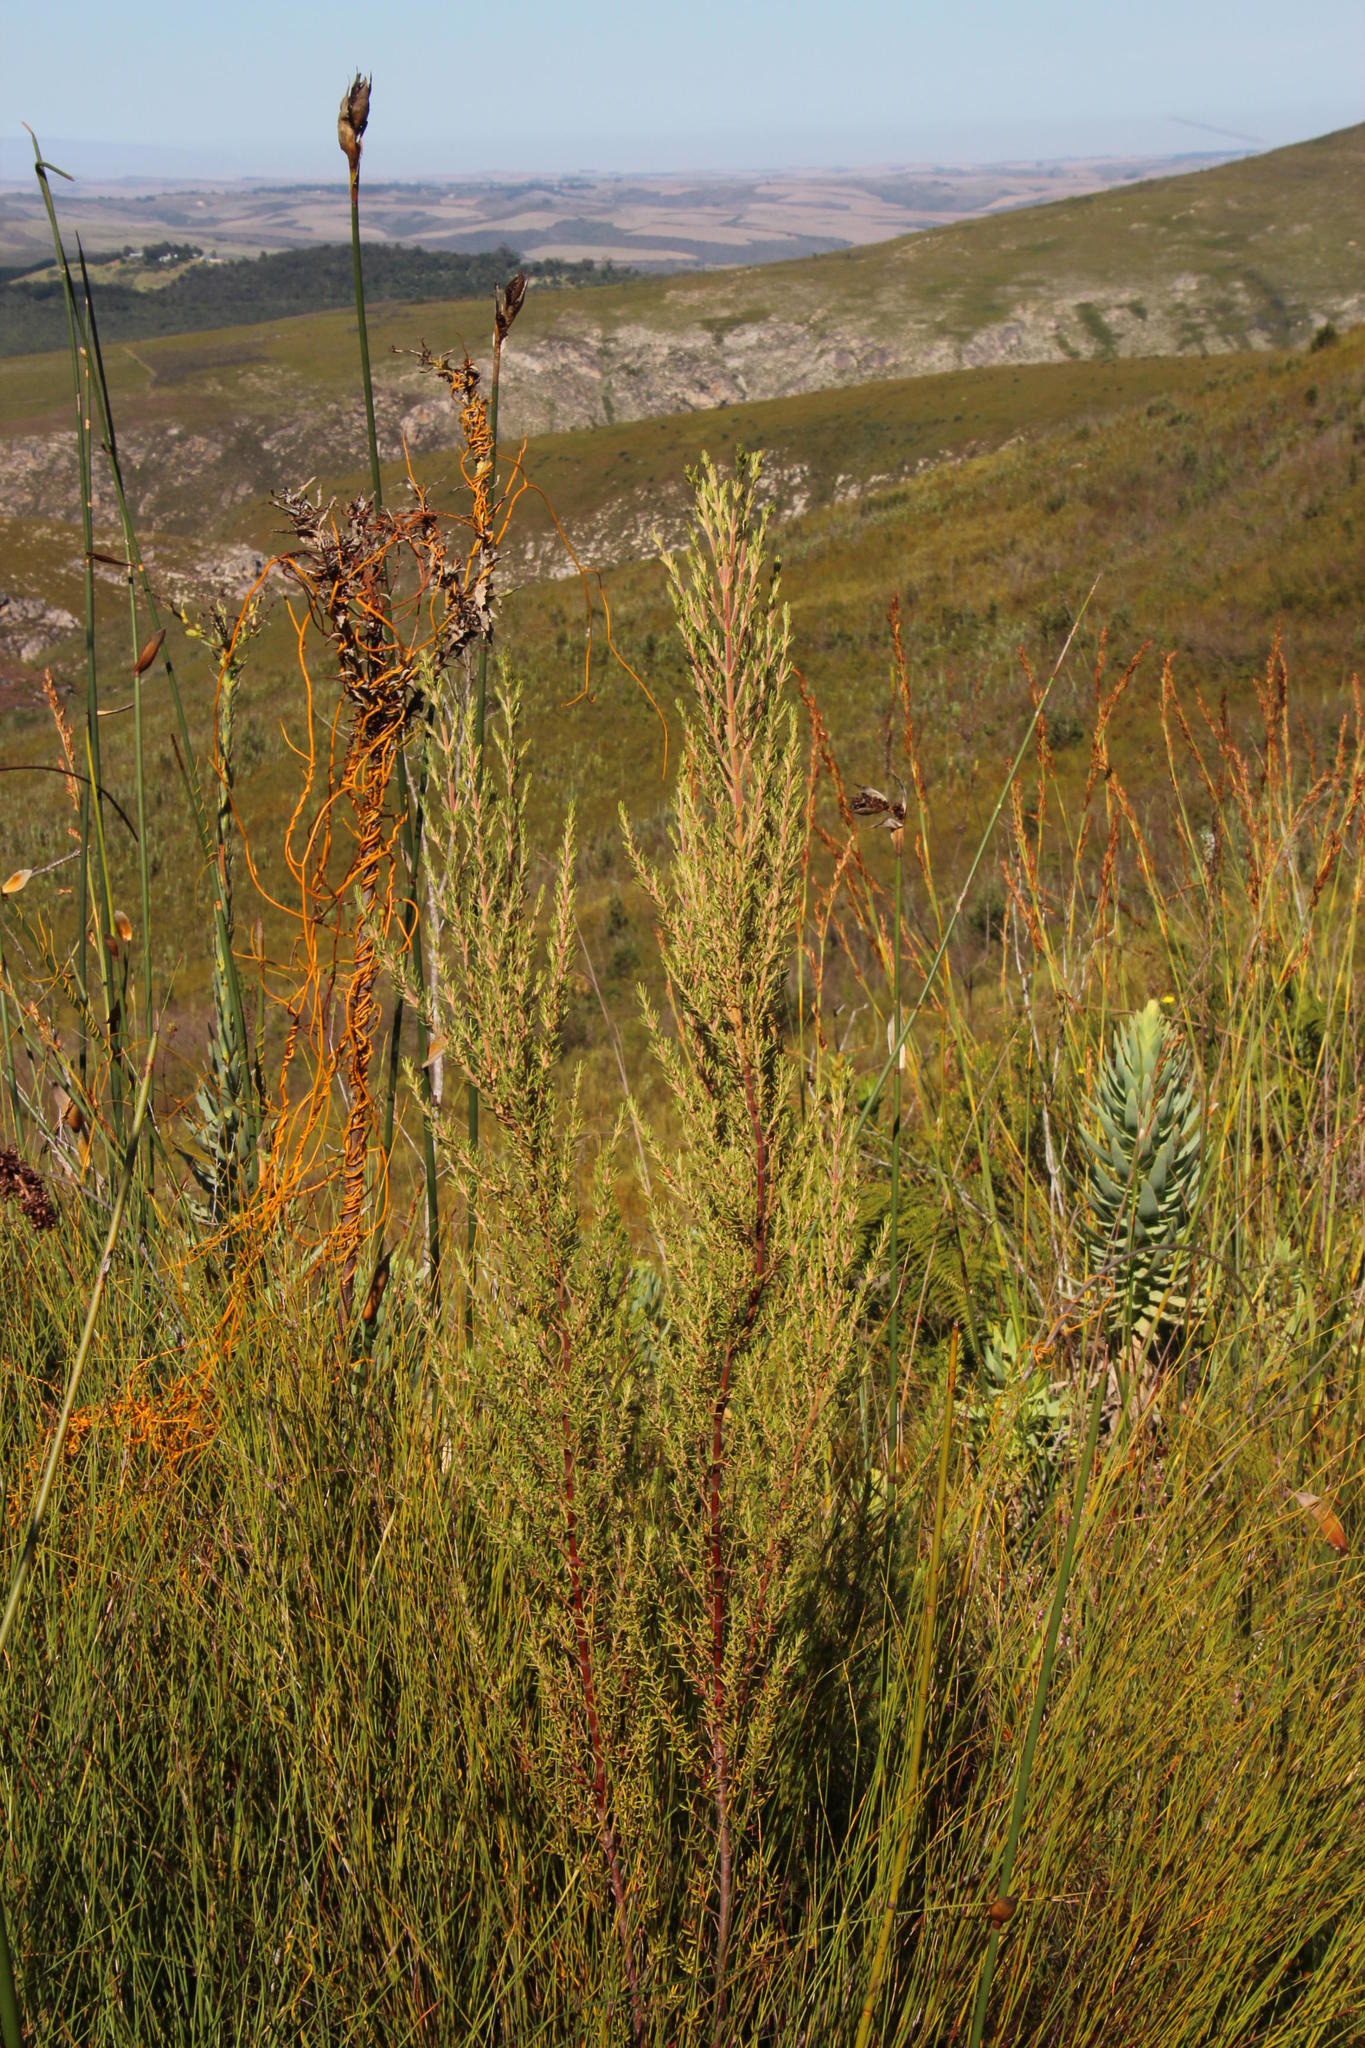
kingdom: Plantae
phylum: Tracheophyta
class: Magnoliopsida
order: Cornales
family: Grubbiaceae
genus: Grubbia
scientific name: Grubbia rosmarinifolia
